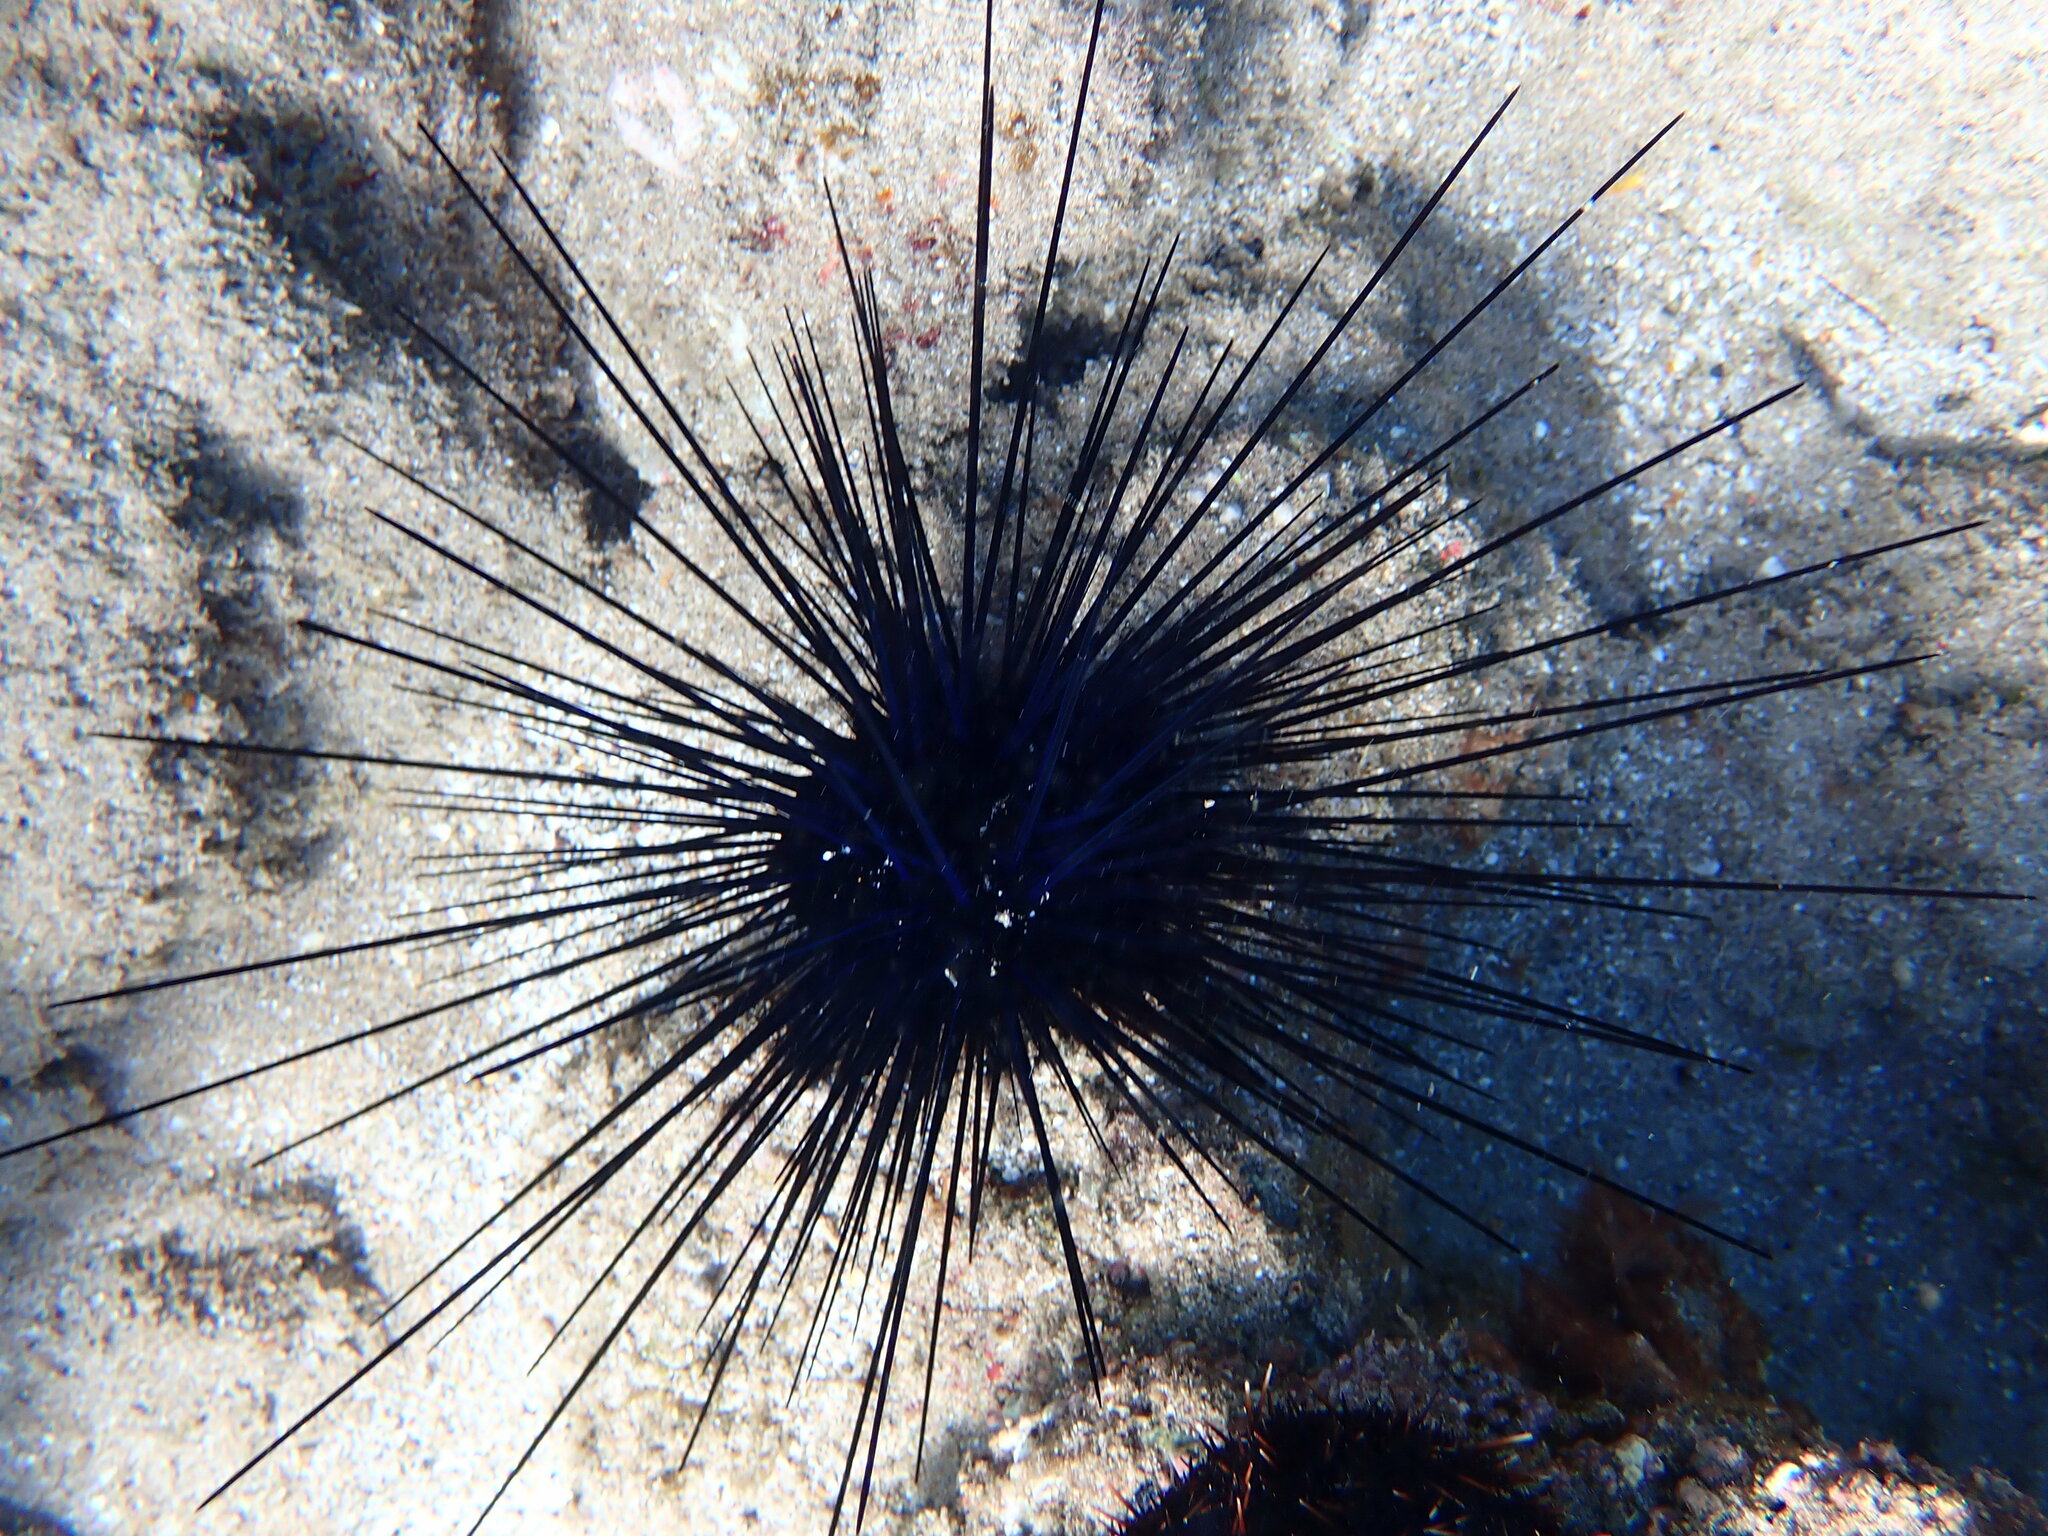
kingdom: Animalia
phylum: Echinodermata
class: Echinoidea
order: Diadematoida
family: Diadematidae
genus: Diadema
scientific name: Diadema paucispinum
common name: Nadel-seeigel
